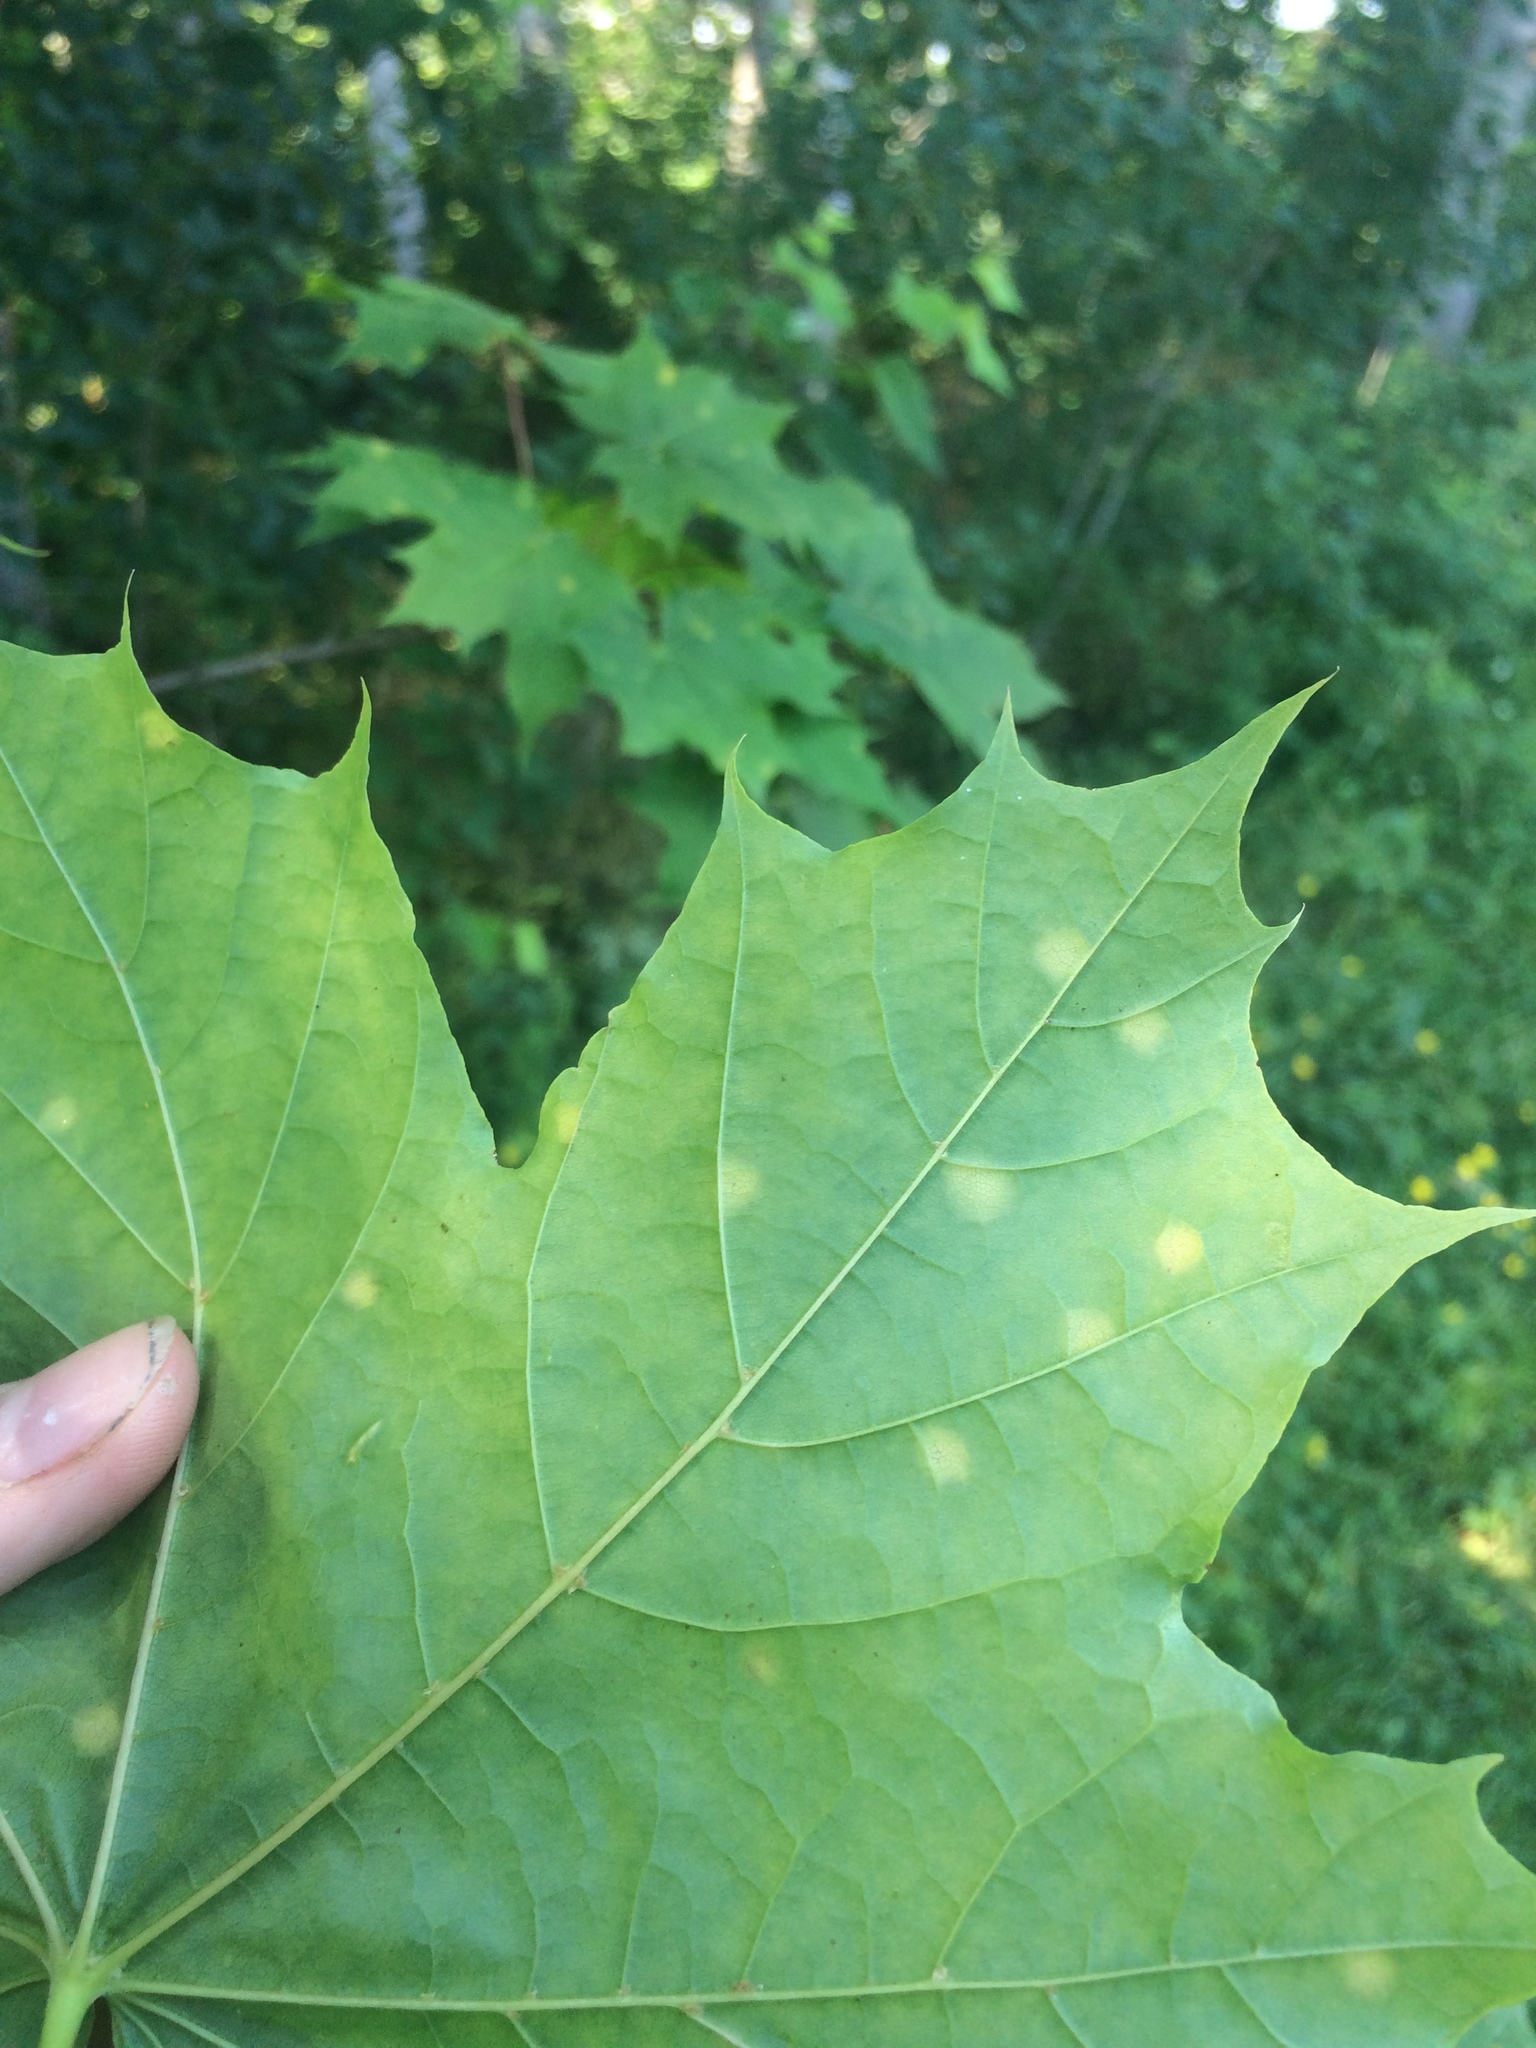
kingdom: Plantae
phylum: Tracheophyta
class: Magnoliopsida
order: Sapindales
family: Sapindaceae
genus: Acer
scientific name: Acer platanoides
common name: Norway maple
